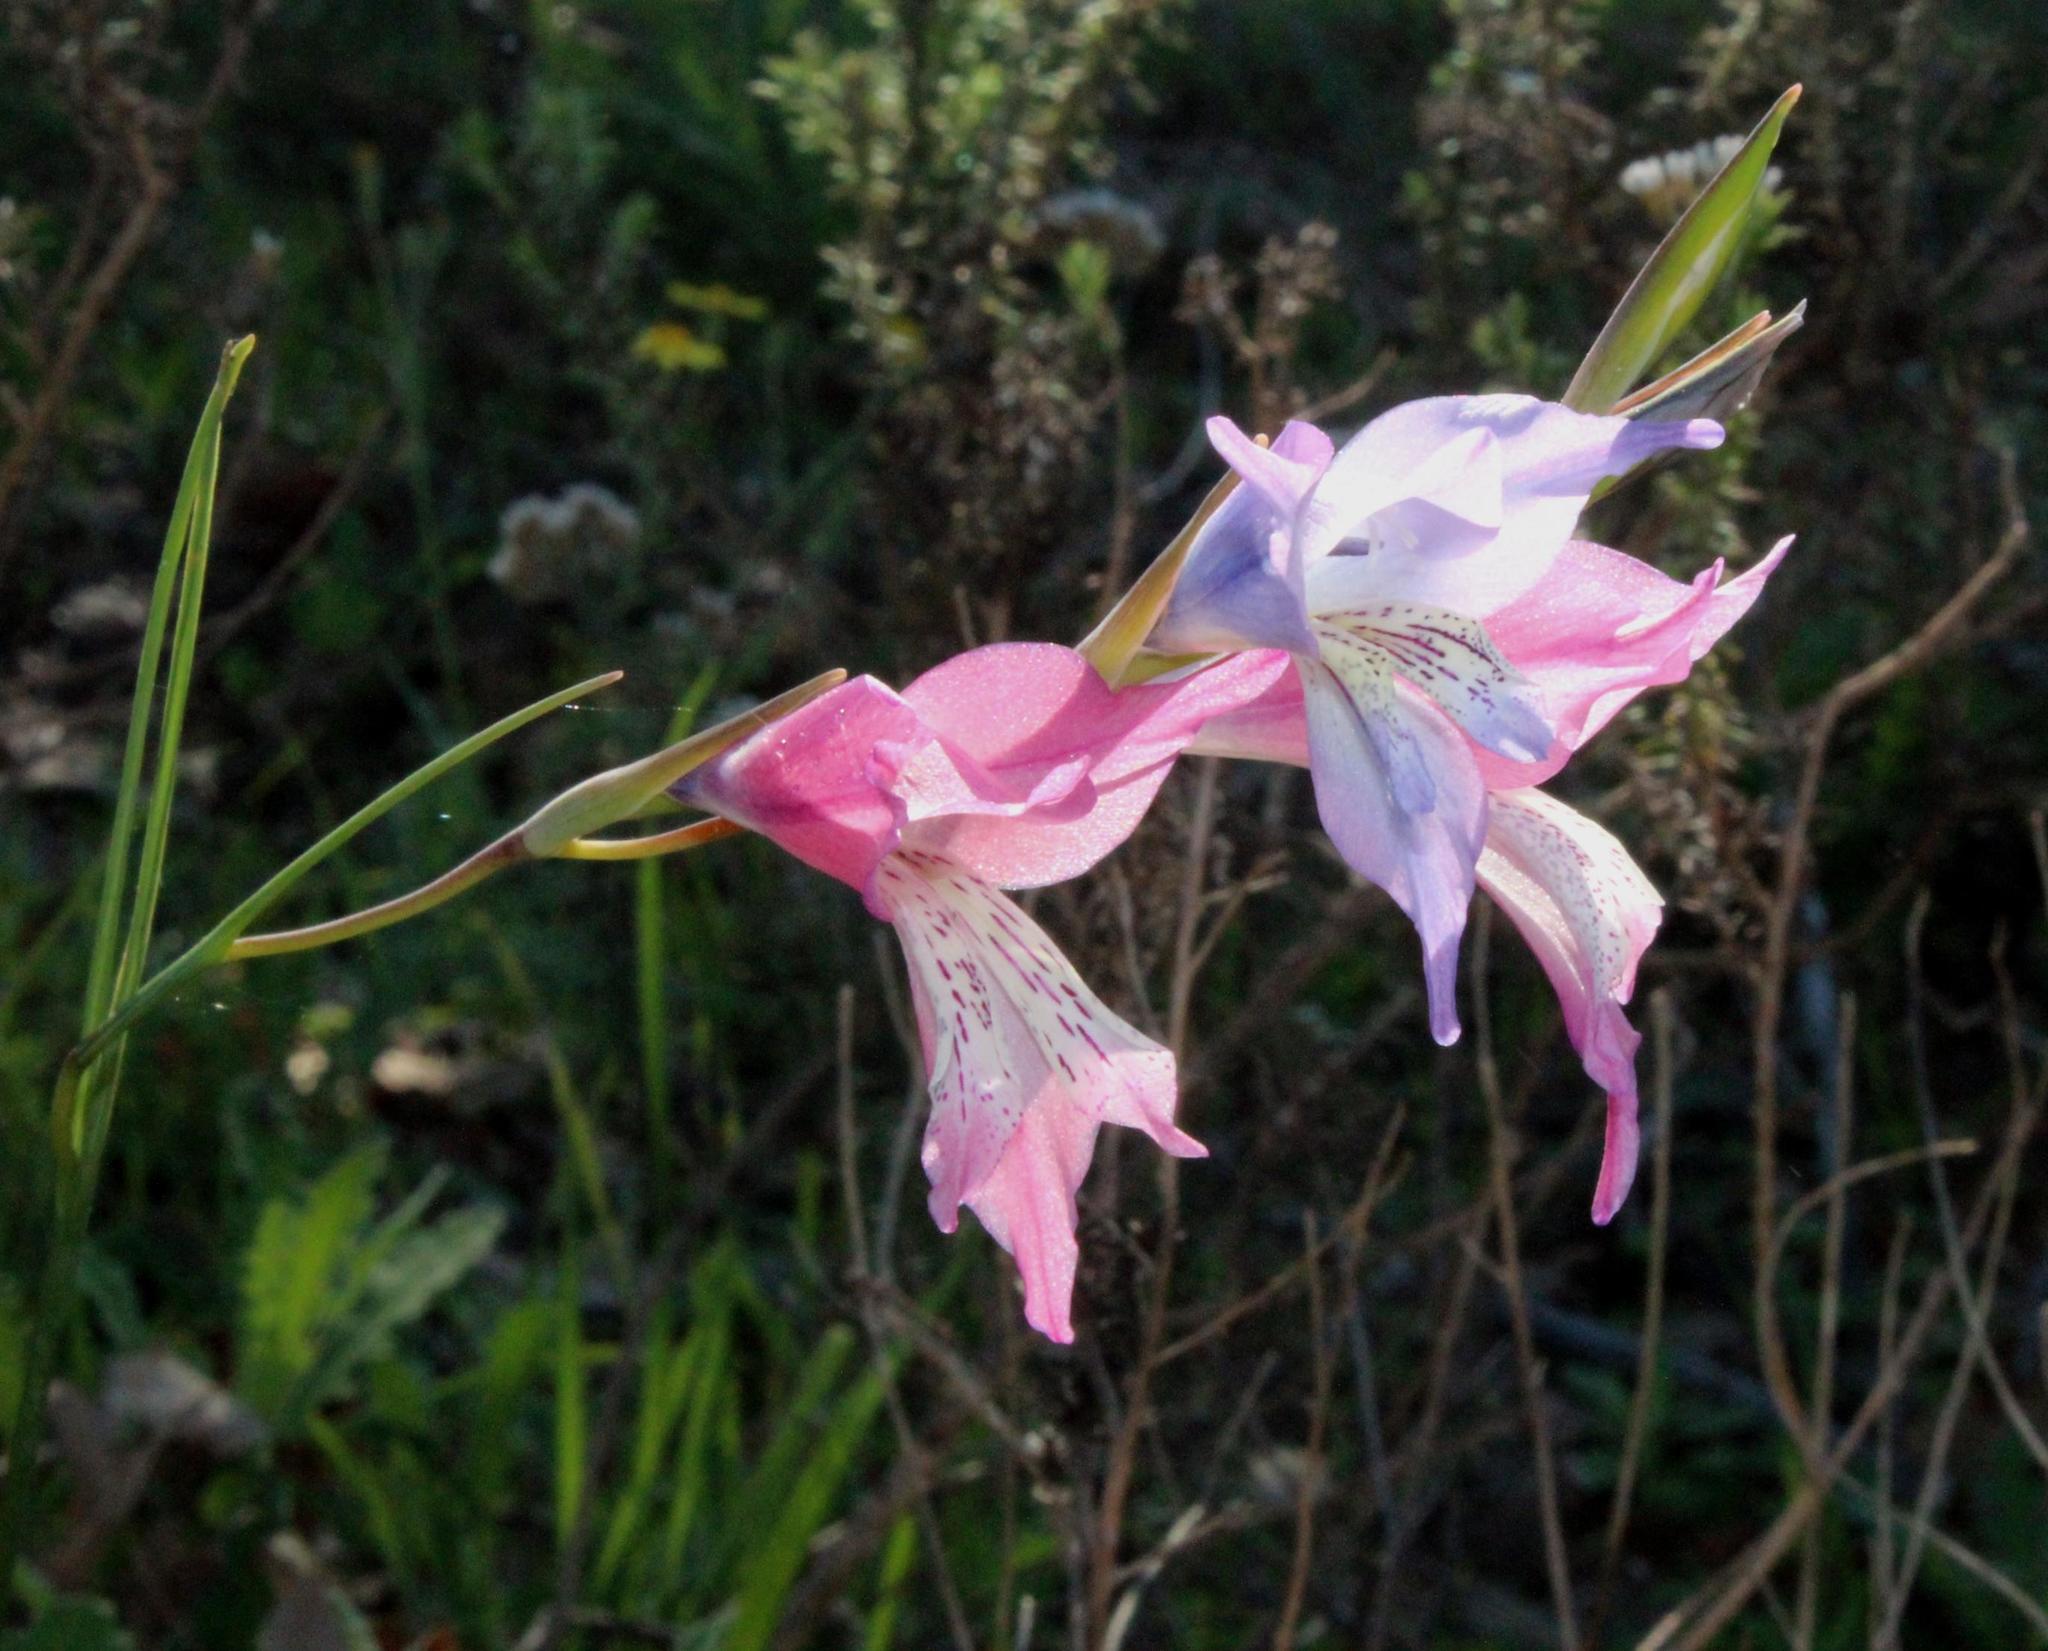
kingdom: Plantae
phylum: Tracheophyta
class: Liliopsida
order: Asparagales
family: Iridaceae
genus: Gladiolus
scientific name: Gladiolus gracilis
